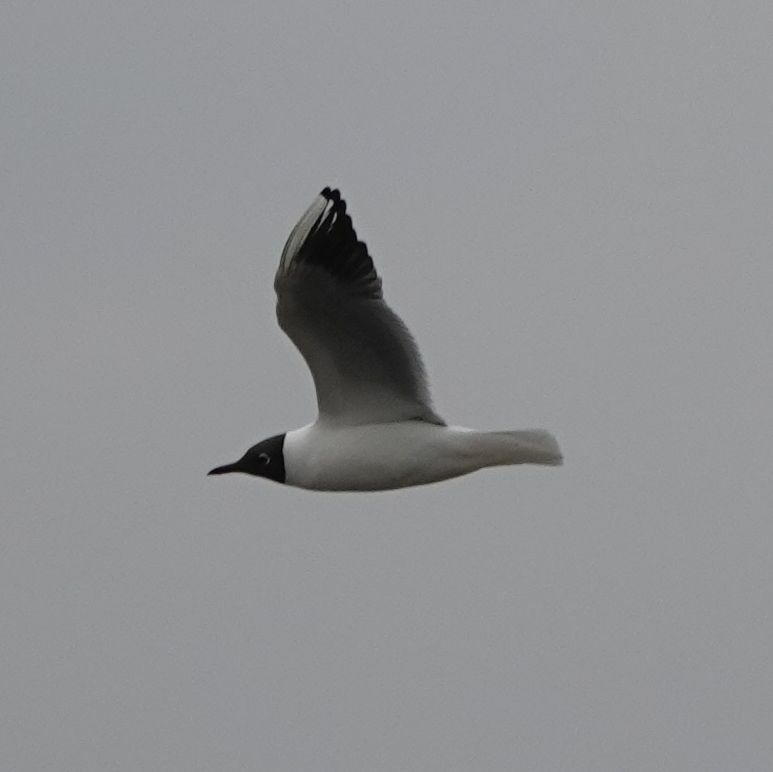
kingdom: Animalia
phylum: Chordata
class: Aves
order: Charadriiformes
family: Laridae
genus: Chroicocephalus
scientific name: Chroicocephalus ridibundus
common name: Black-headed gull
